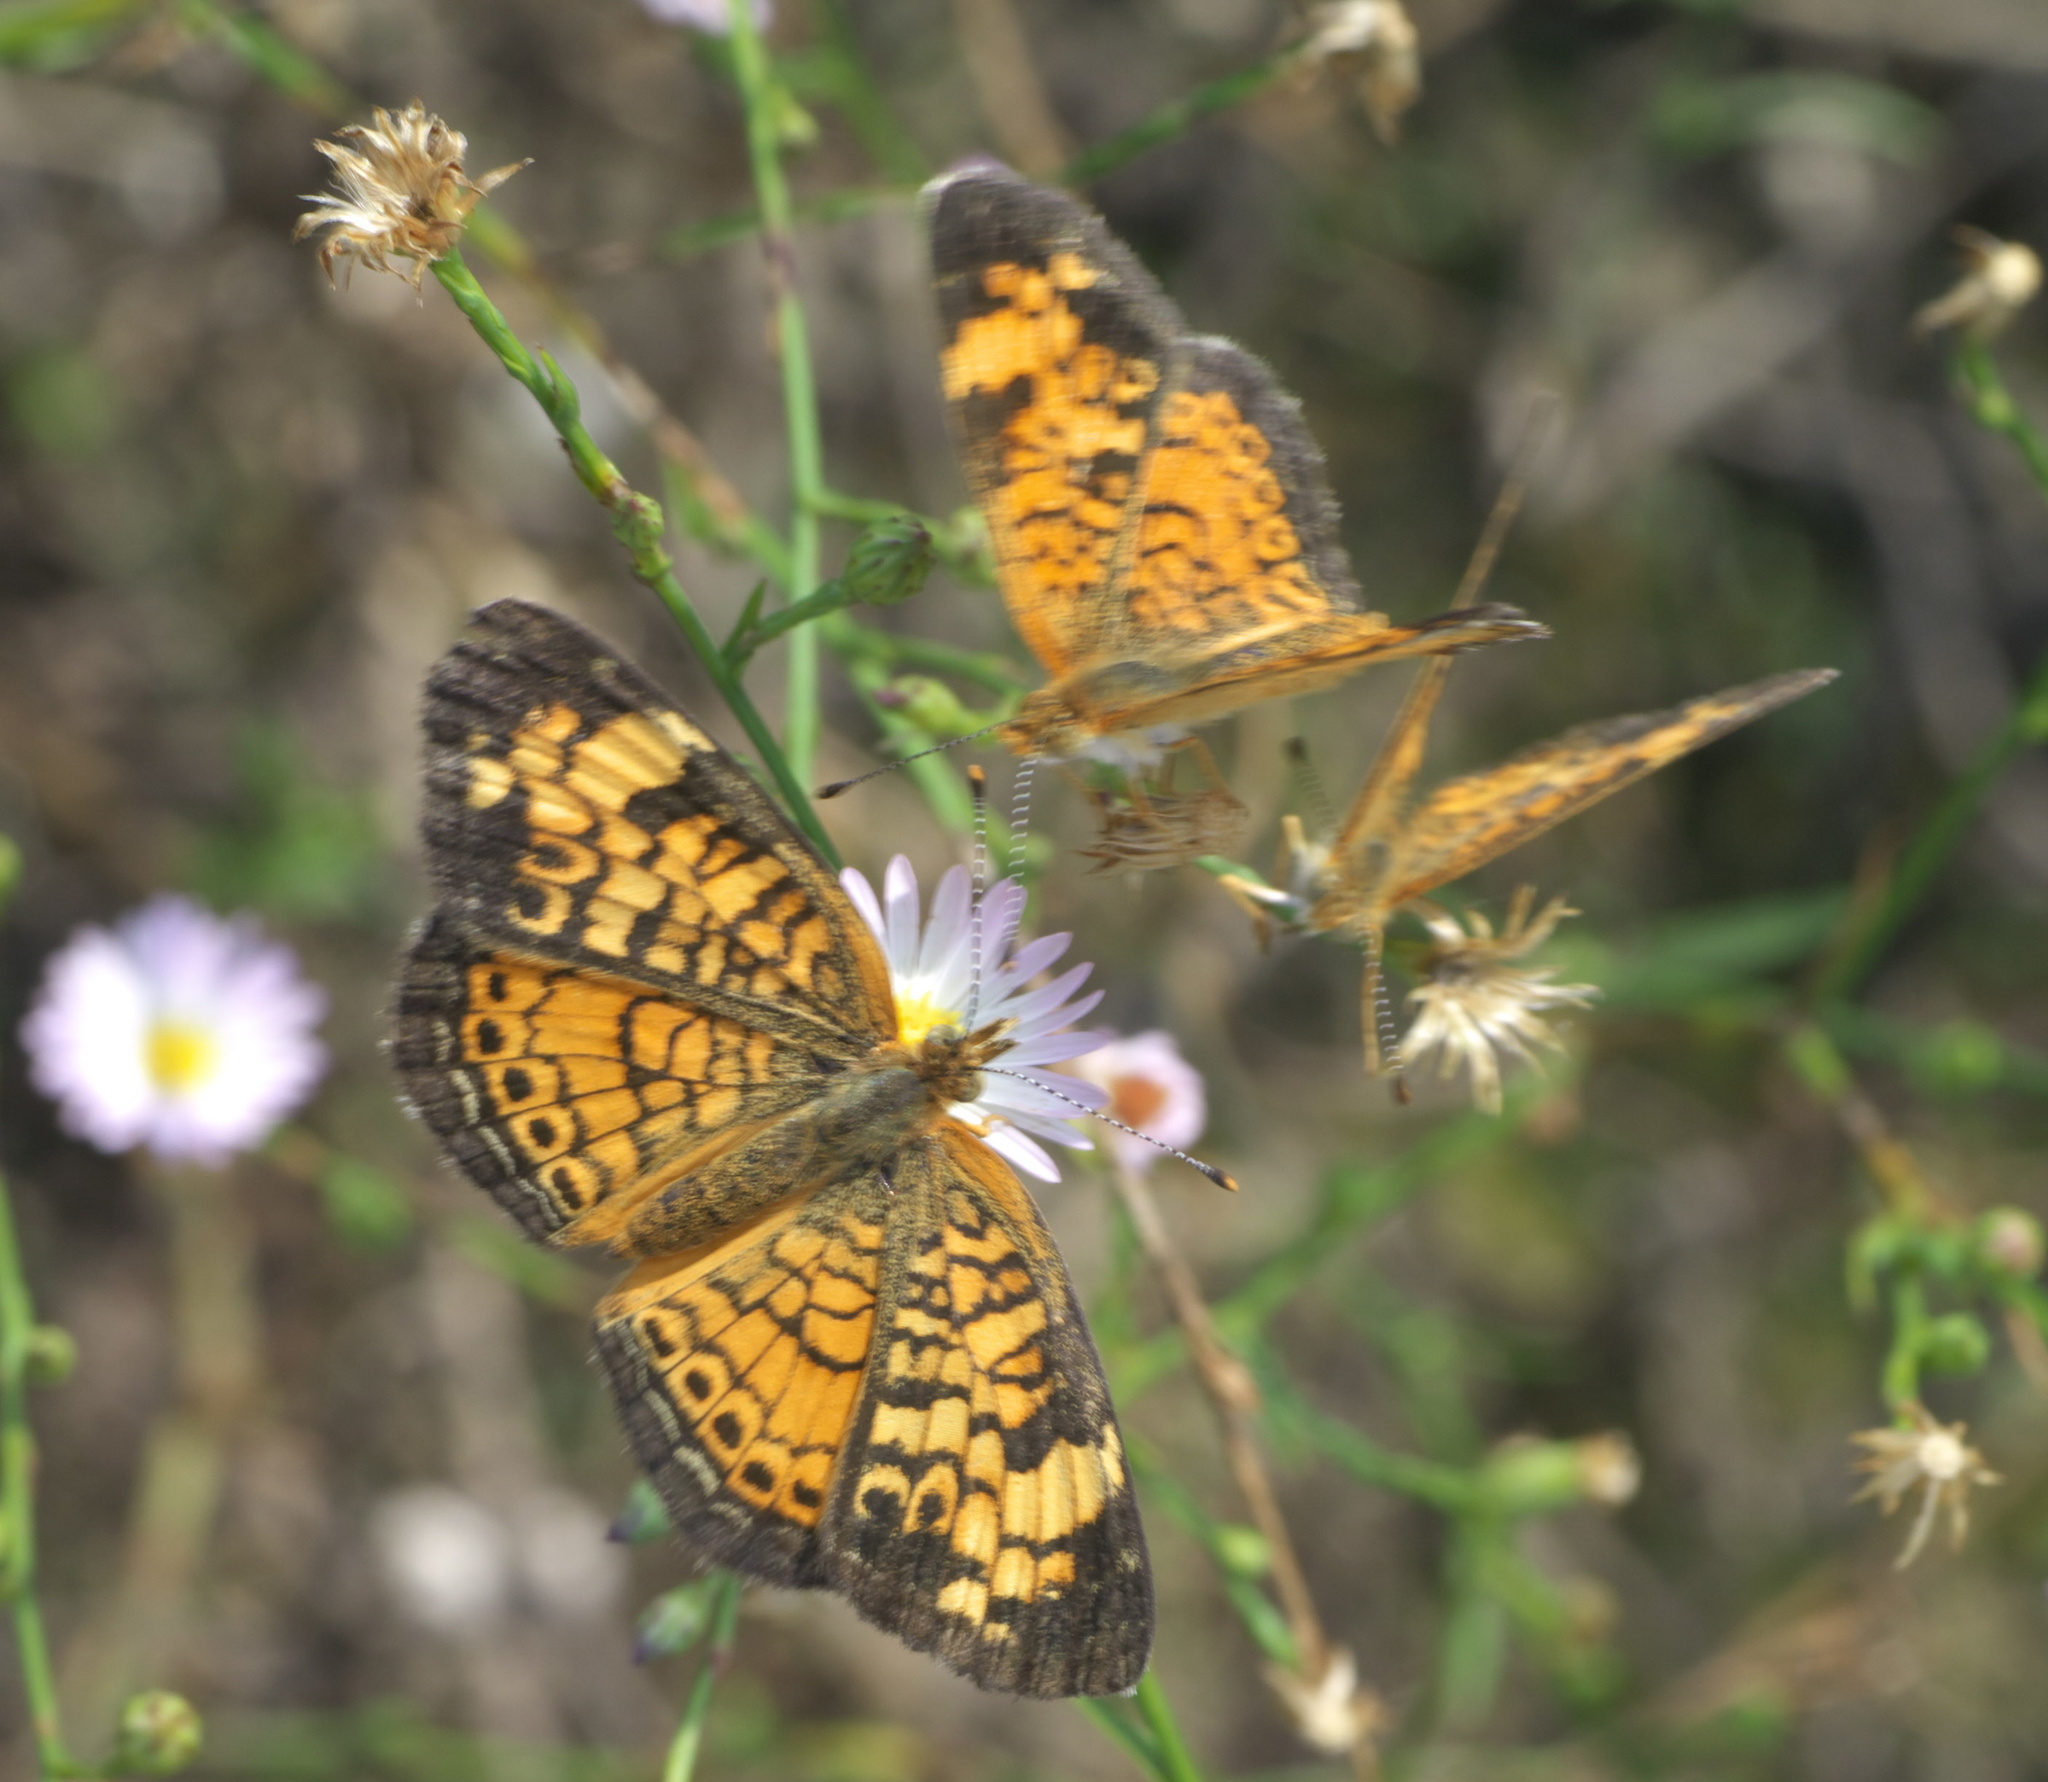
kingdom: Animalia
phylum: Arthropoda
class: Insecta
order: Lepidoptera
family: Nymphalidae
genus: Phyciodes
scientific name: Phyciodes tharos
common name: Pearl crescent
